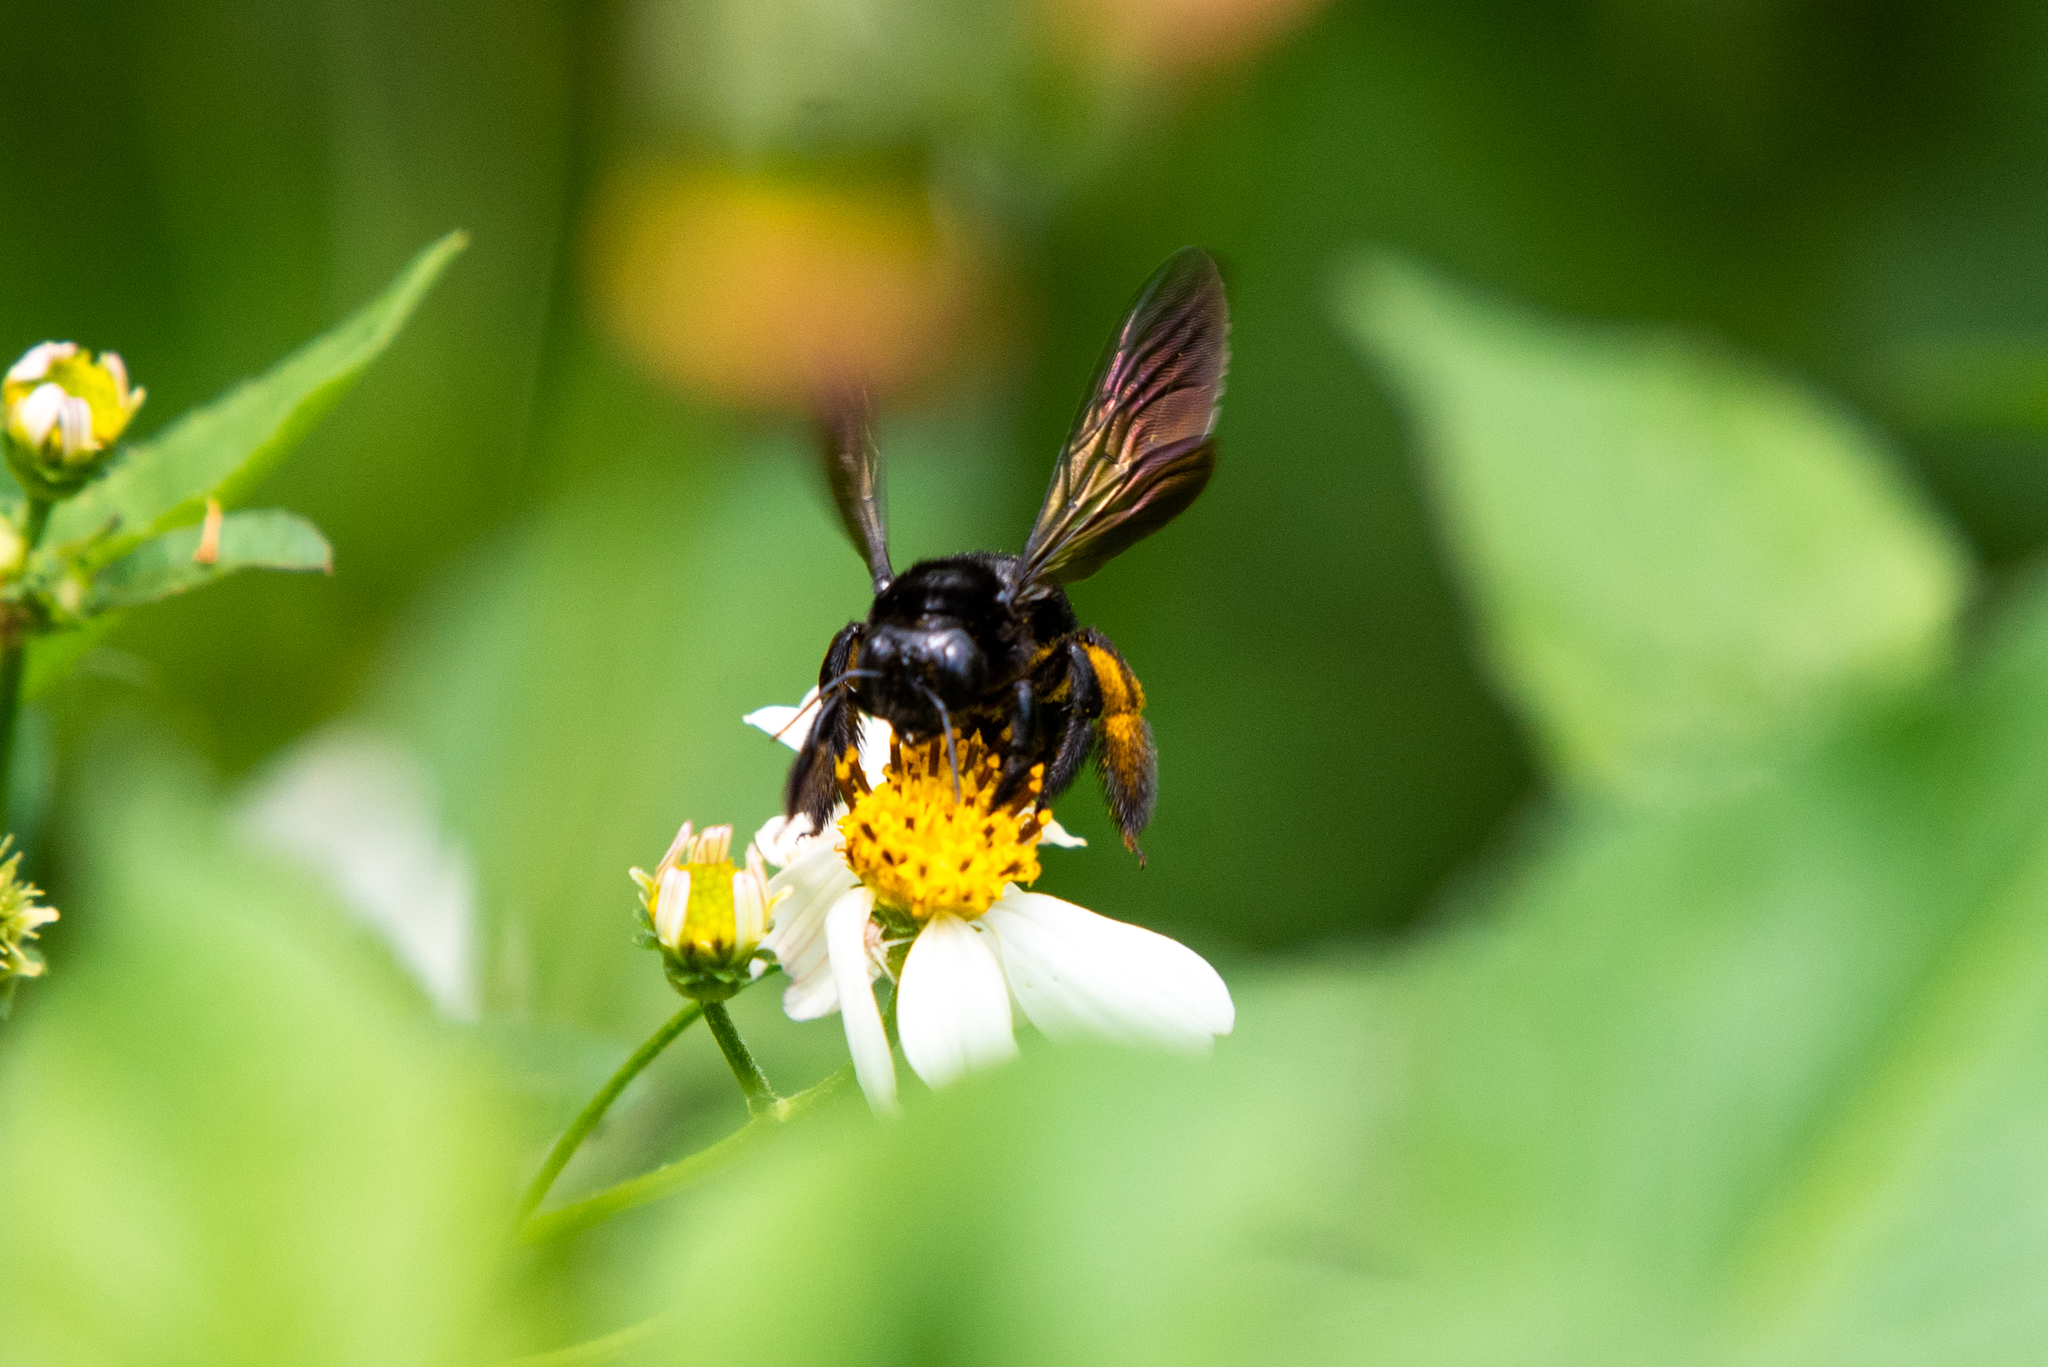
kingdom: Animalia
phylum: Arthropoda
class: Insecta
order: Hymenoptera
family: Apidae
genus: Xylocopa
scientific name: Xylocopa tranquebarorum
